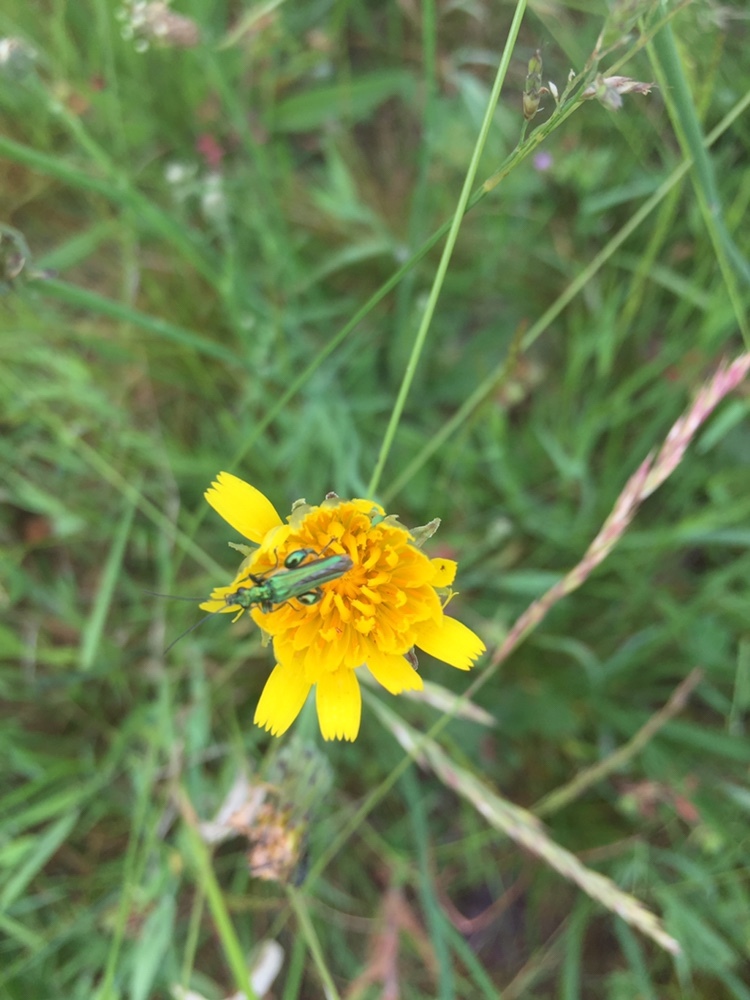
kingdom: Animalia
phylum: Arthropoda
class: Insecta
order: Coleoptera
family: Oedemeridae
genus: Oedemera
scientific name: Oedemera nobilis
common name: Swollen-thighed beetle
